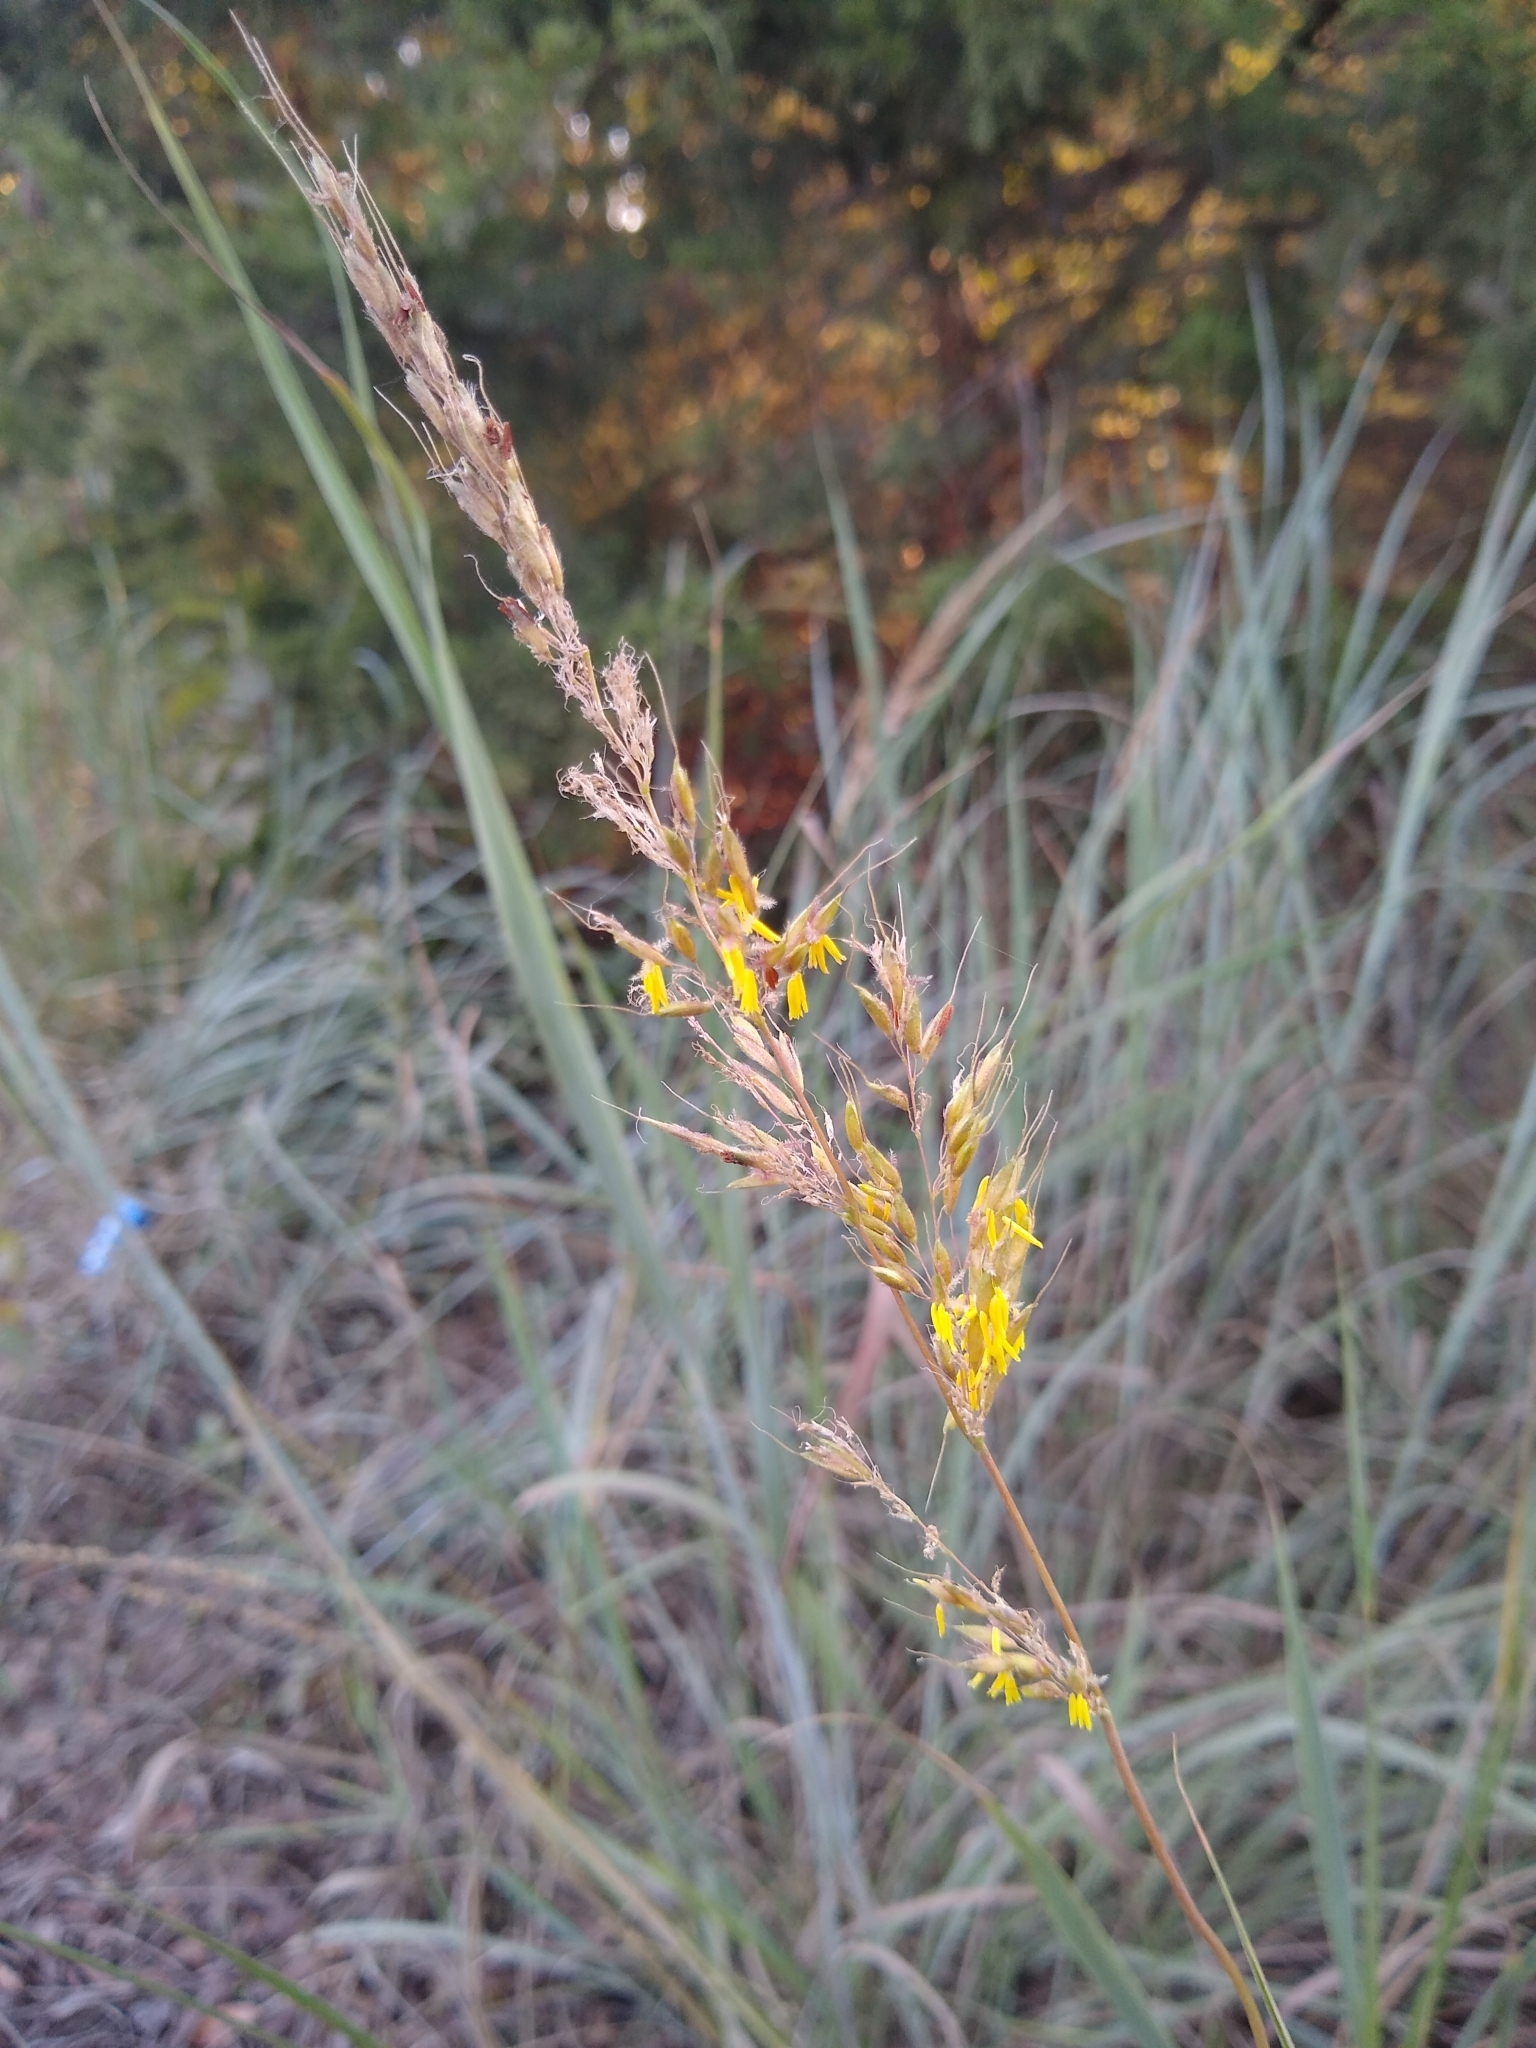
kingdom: Plantae
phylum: Tracheophyta
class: Liliopsida
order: Poales
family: Poaceae
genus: Sorghastrum
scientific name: Sorghastrum nutans
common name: Indian grass
